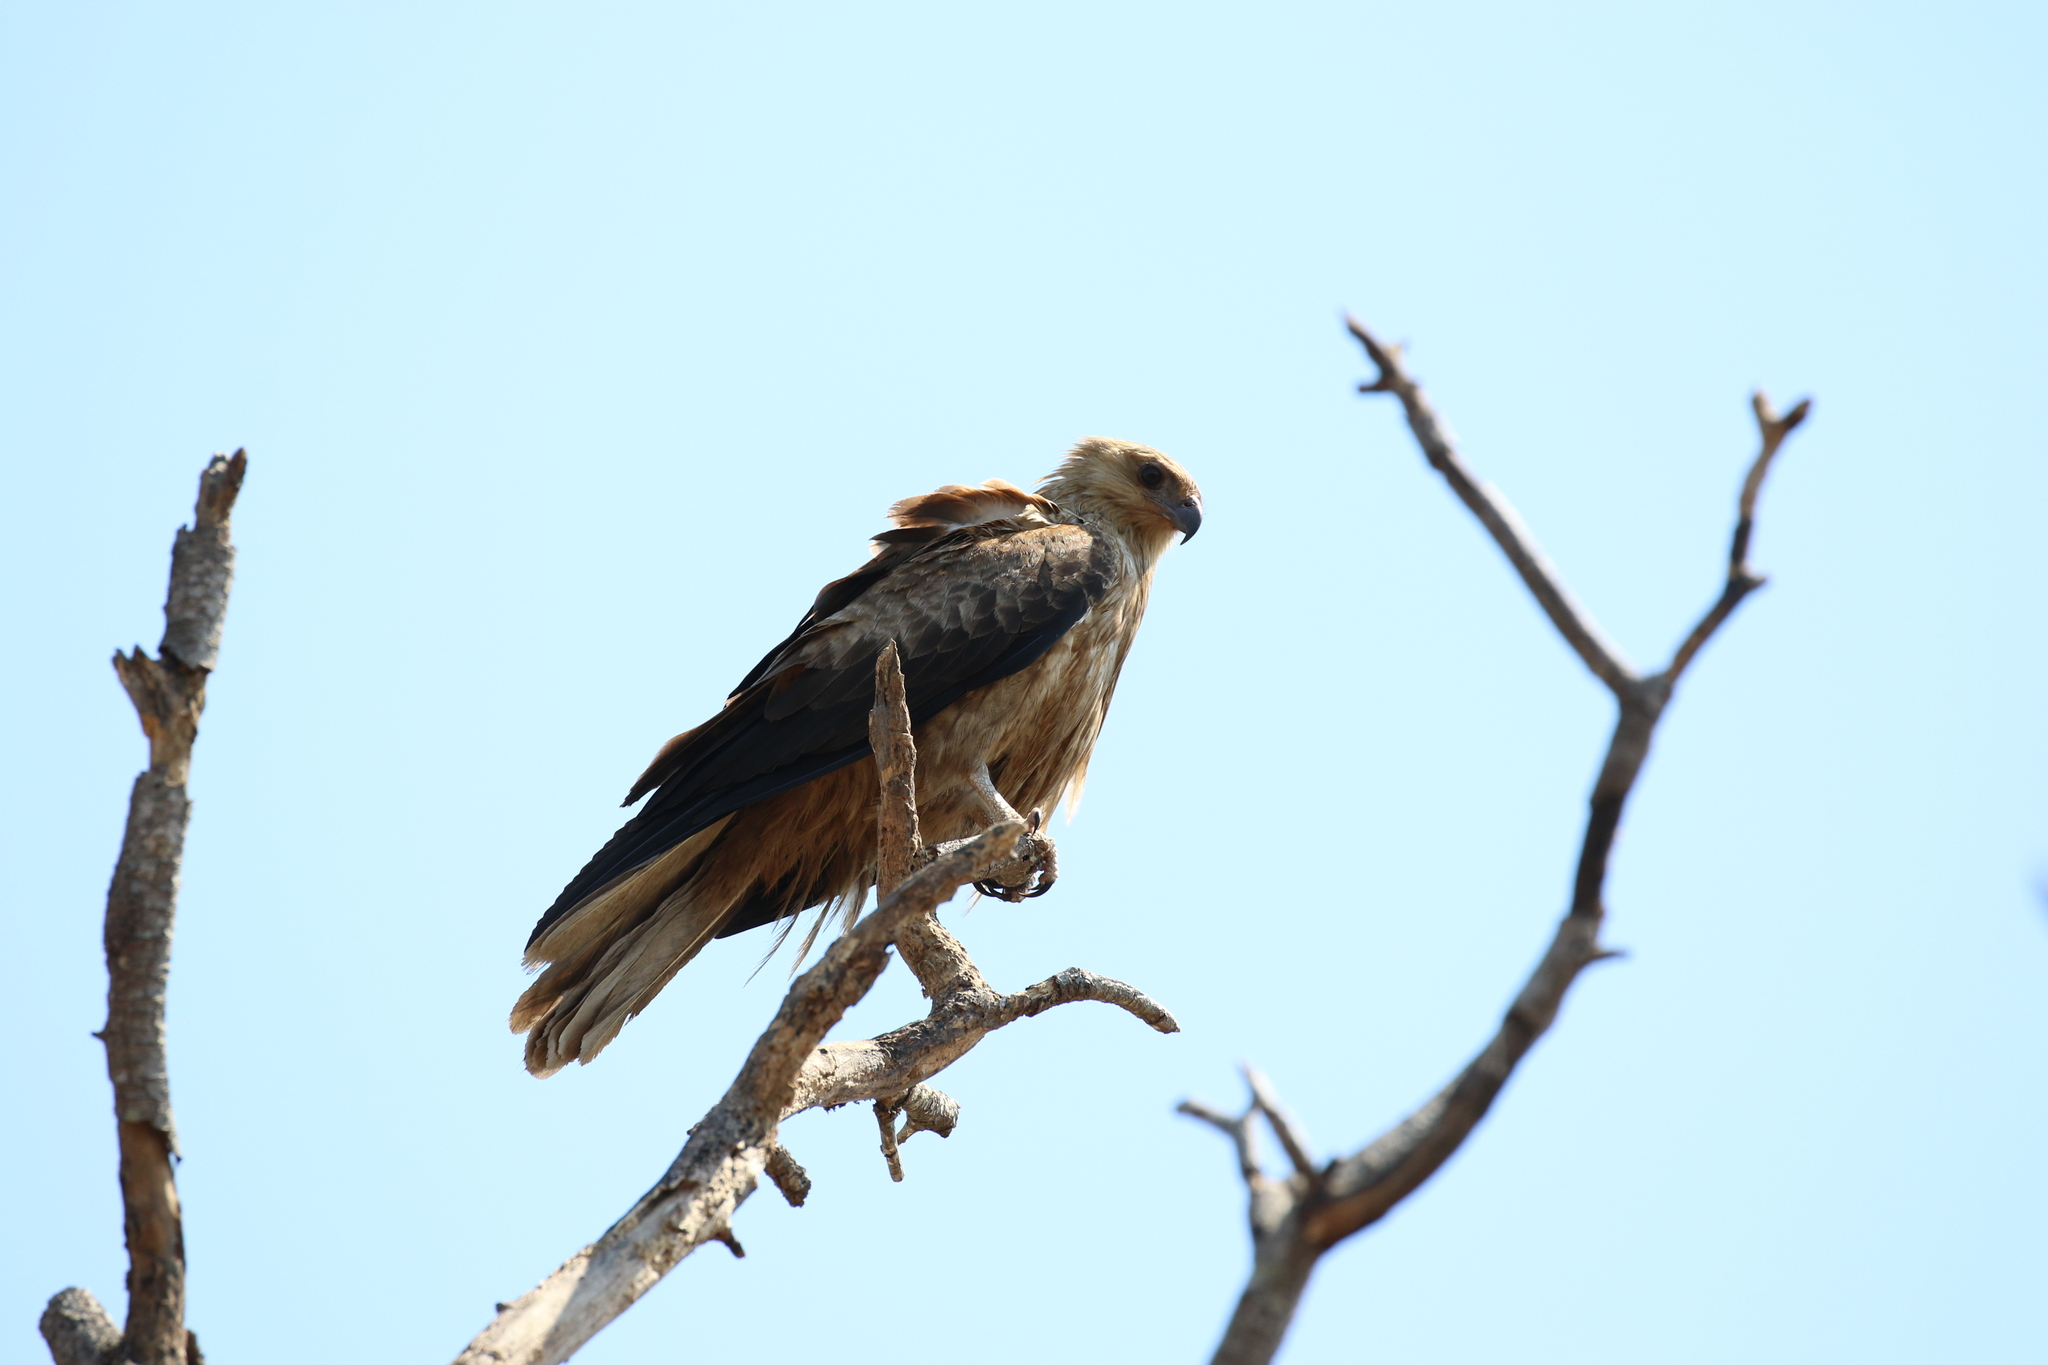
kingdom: Animalia
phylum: Chordata
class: Aves
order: Accipitriformes
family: Accipitridae
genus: Haliastur
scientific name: Haliastur sphenurus
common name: Whistling kite
